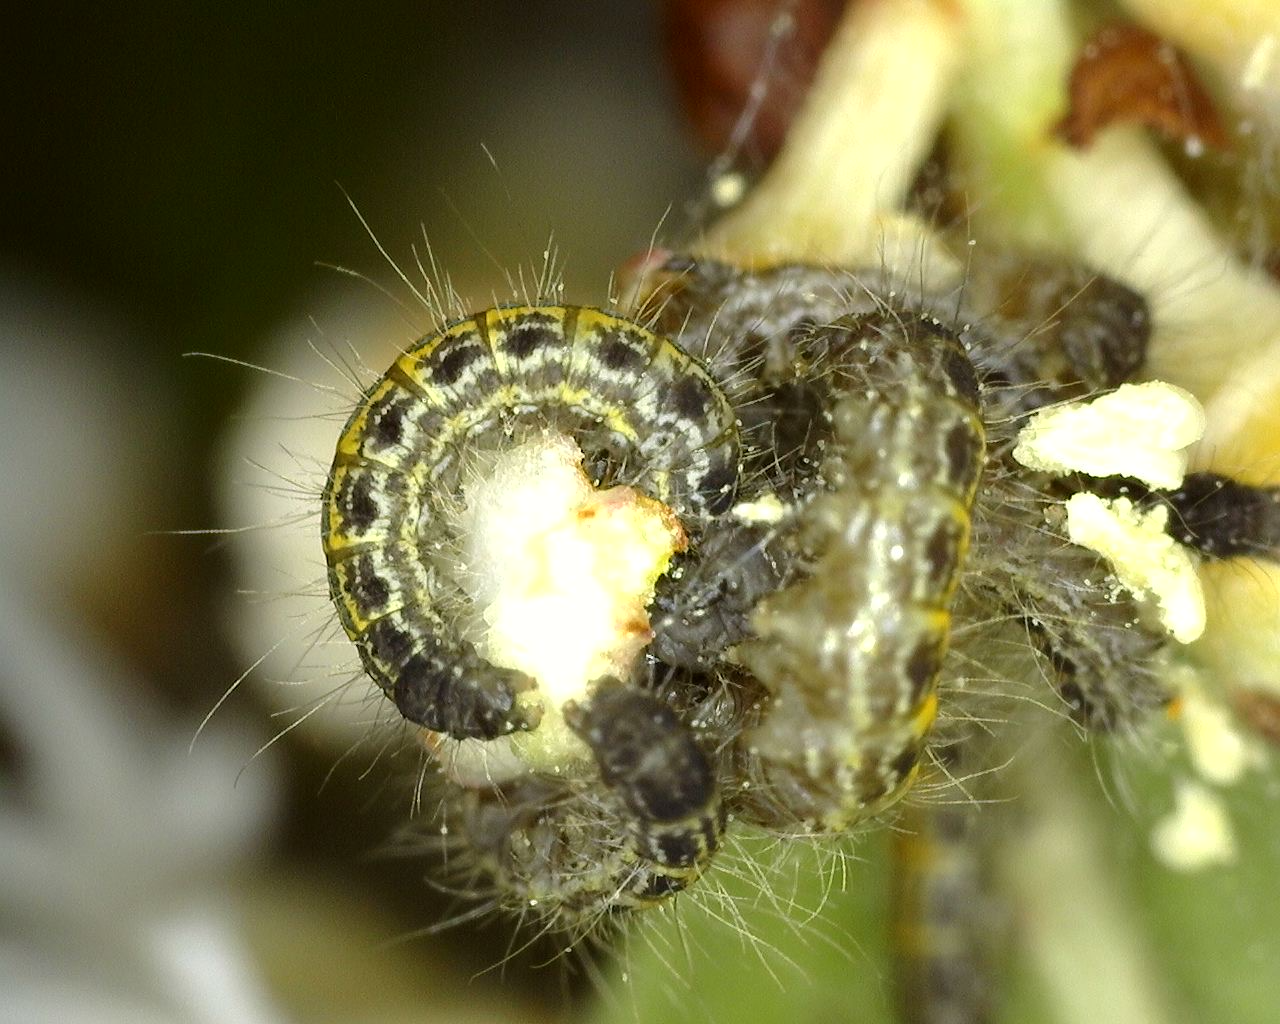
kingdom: Animalia
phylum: Arthropoda
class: Insecta
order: Lepidoptera
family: Lasiocampidae
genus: Malacosoma
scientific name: Malacosoma americana
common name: Eastern tent caterpillar moth
